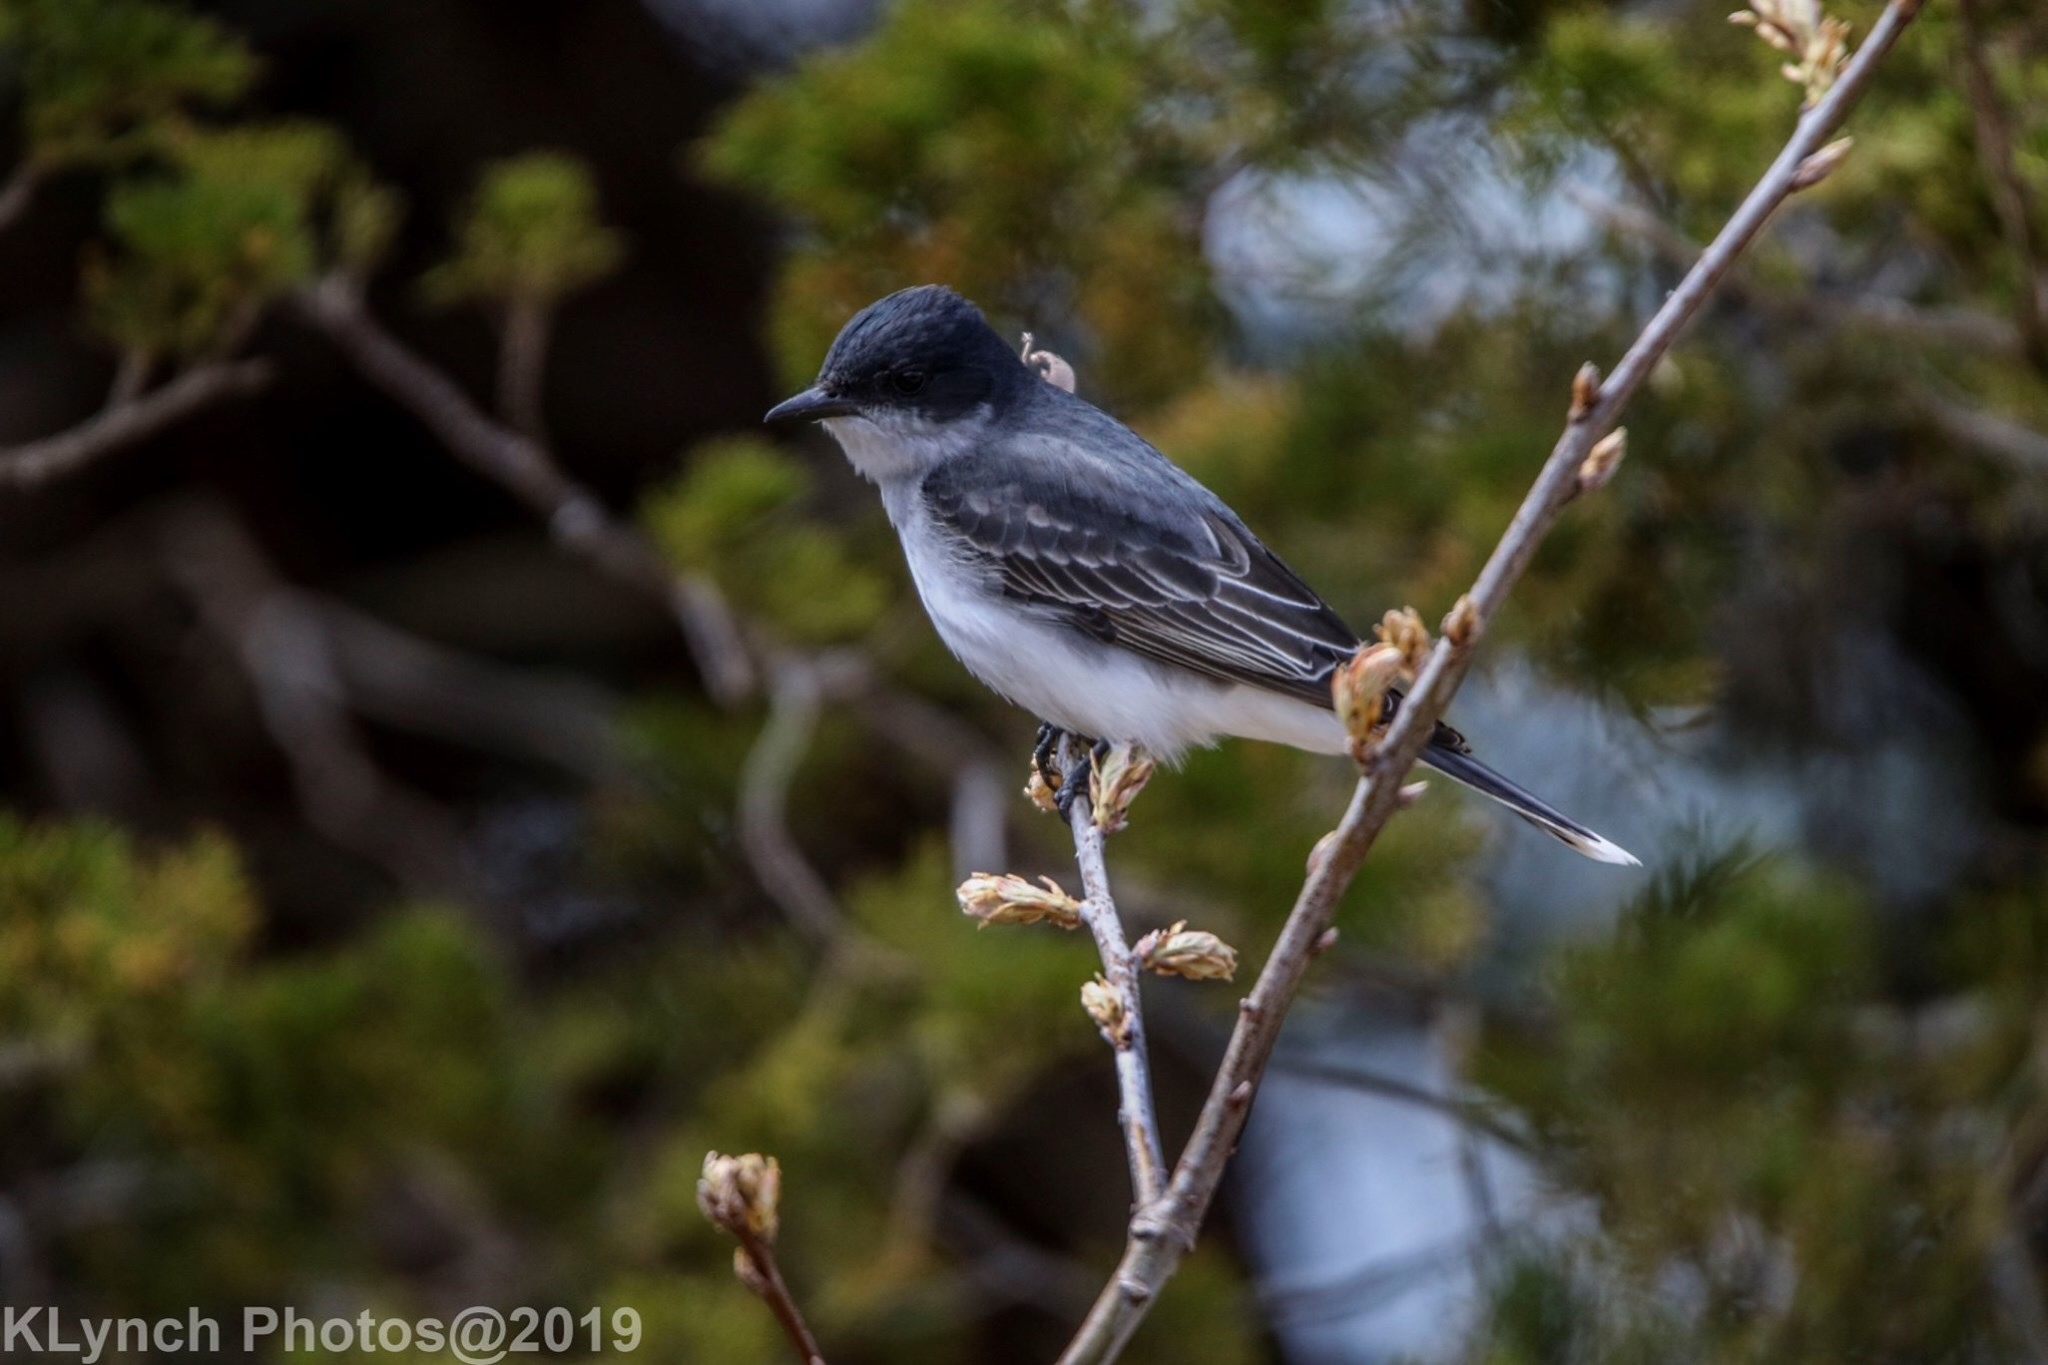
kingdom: Animalia
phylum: Chordata
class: Aves
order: Passeriformes
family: Tyrannidae
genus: Tyrannus
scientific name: Tyrannus tyrannus
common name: Eastern kingbird
